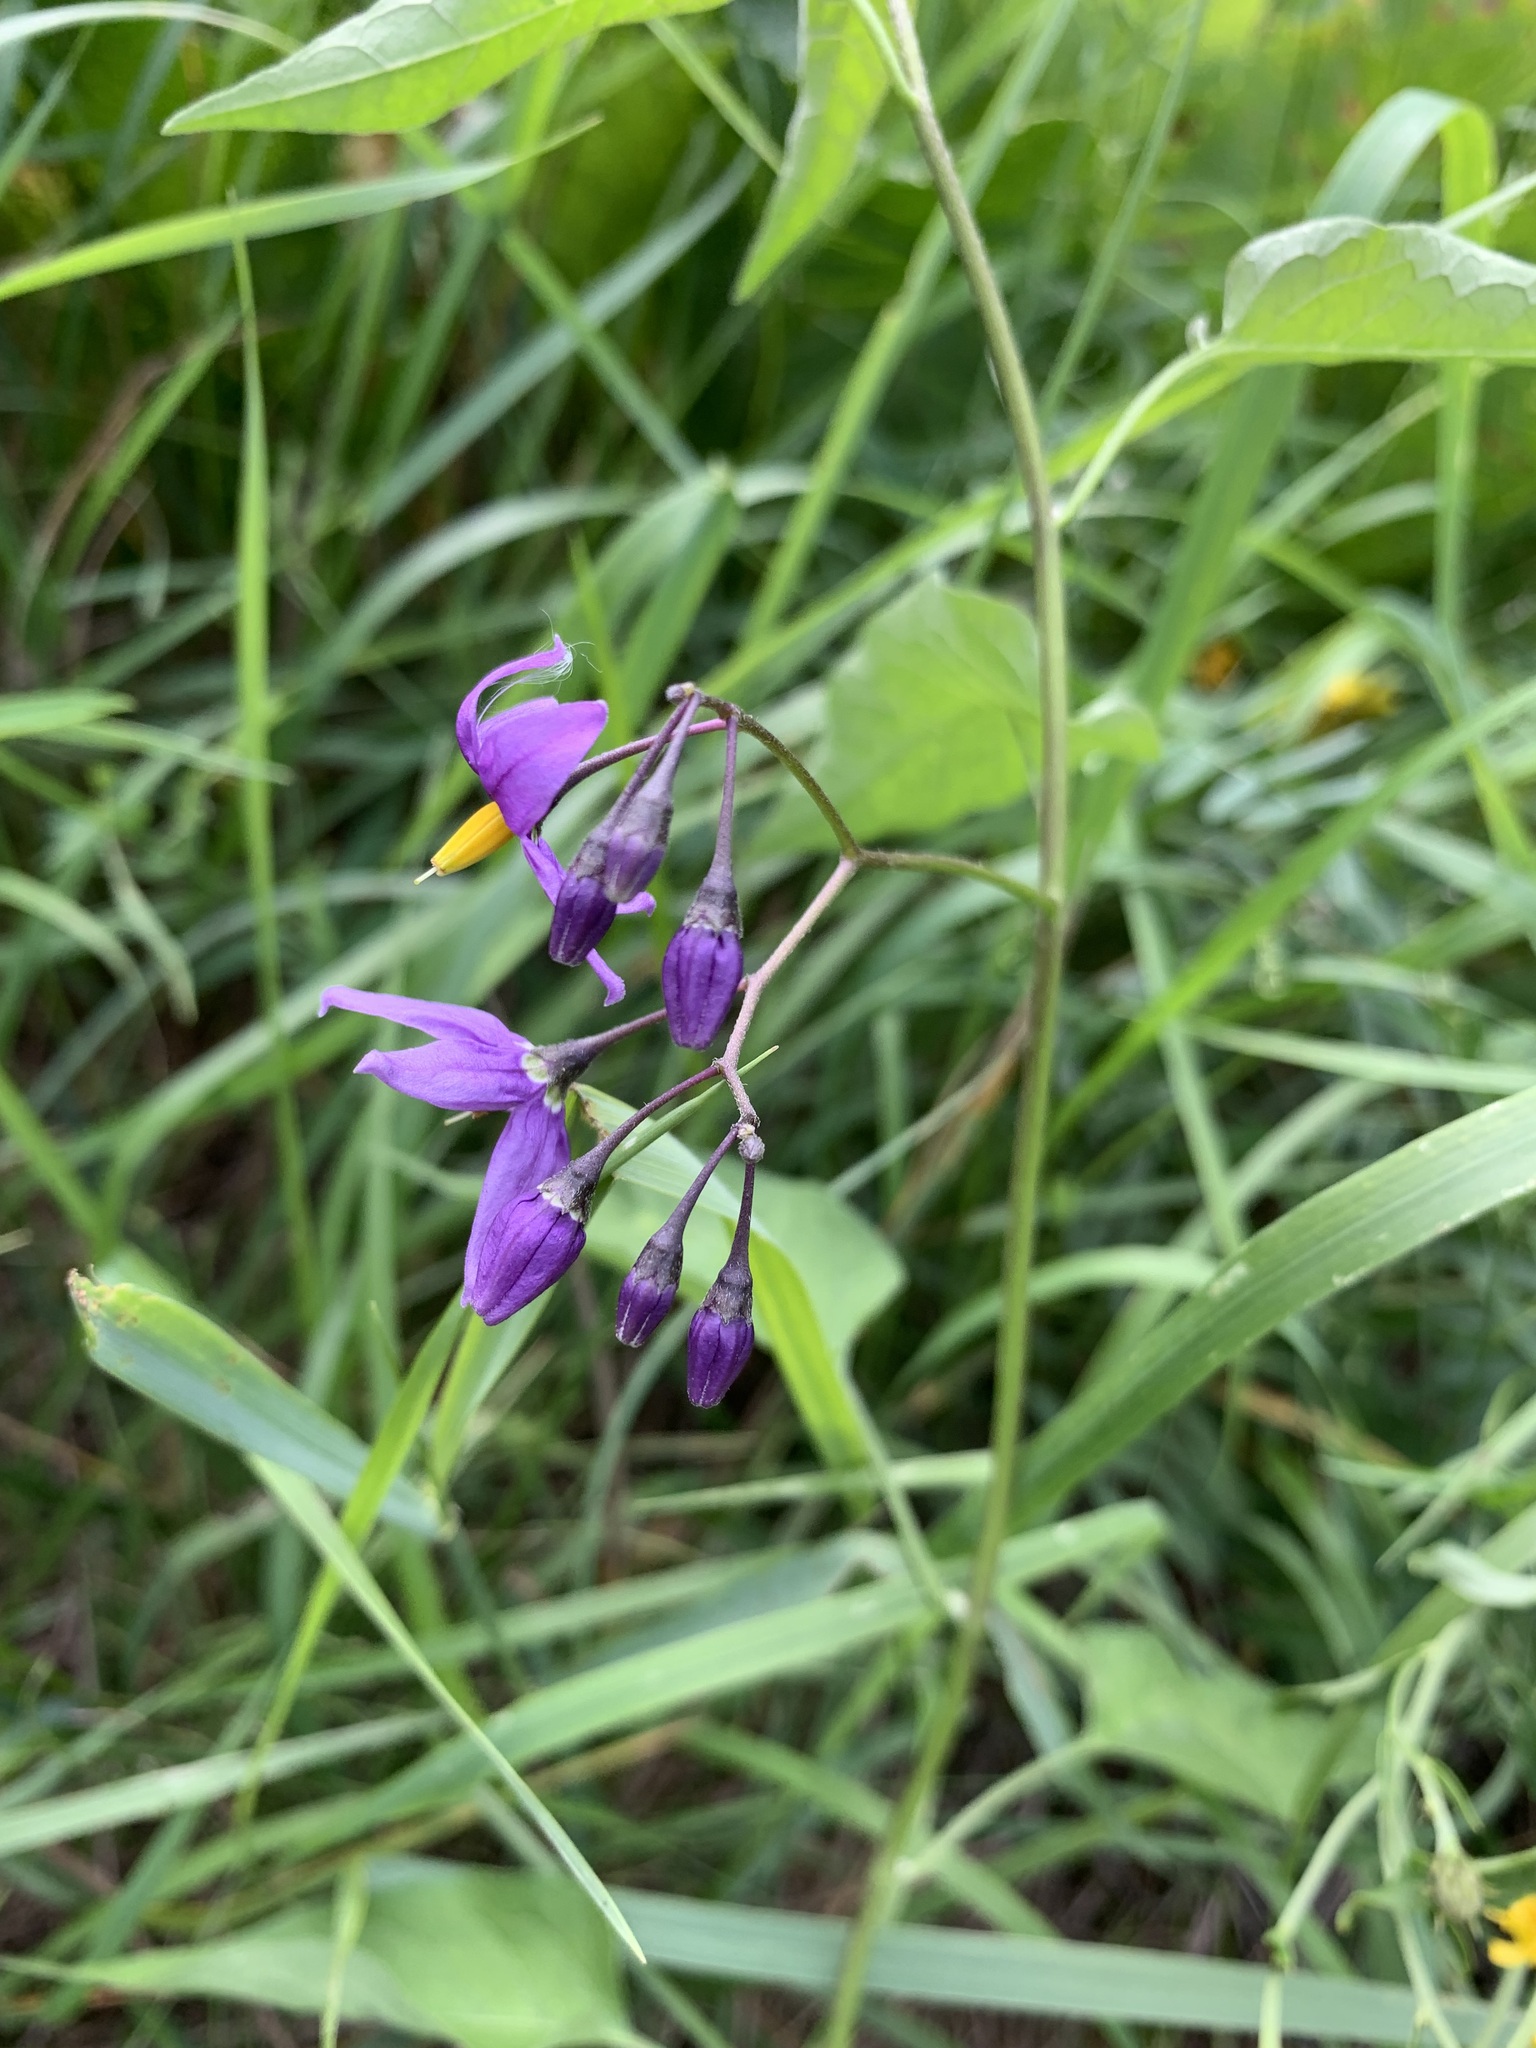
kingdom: Plantae
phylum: Tracheophyta
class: Magnoliopsida
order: Solanales
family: Solanaceae
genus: Solanum
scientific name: Solanum dulcamara
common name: Climbing nightshade
